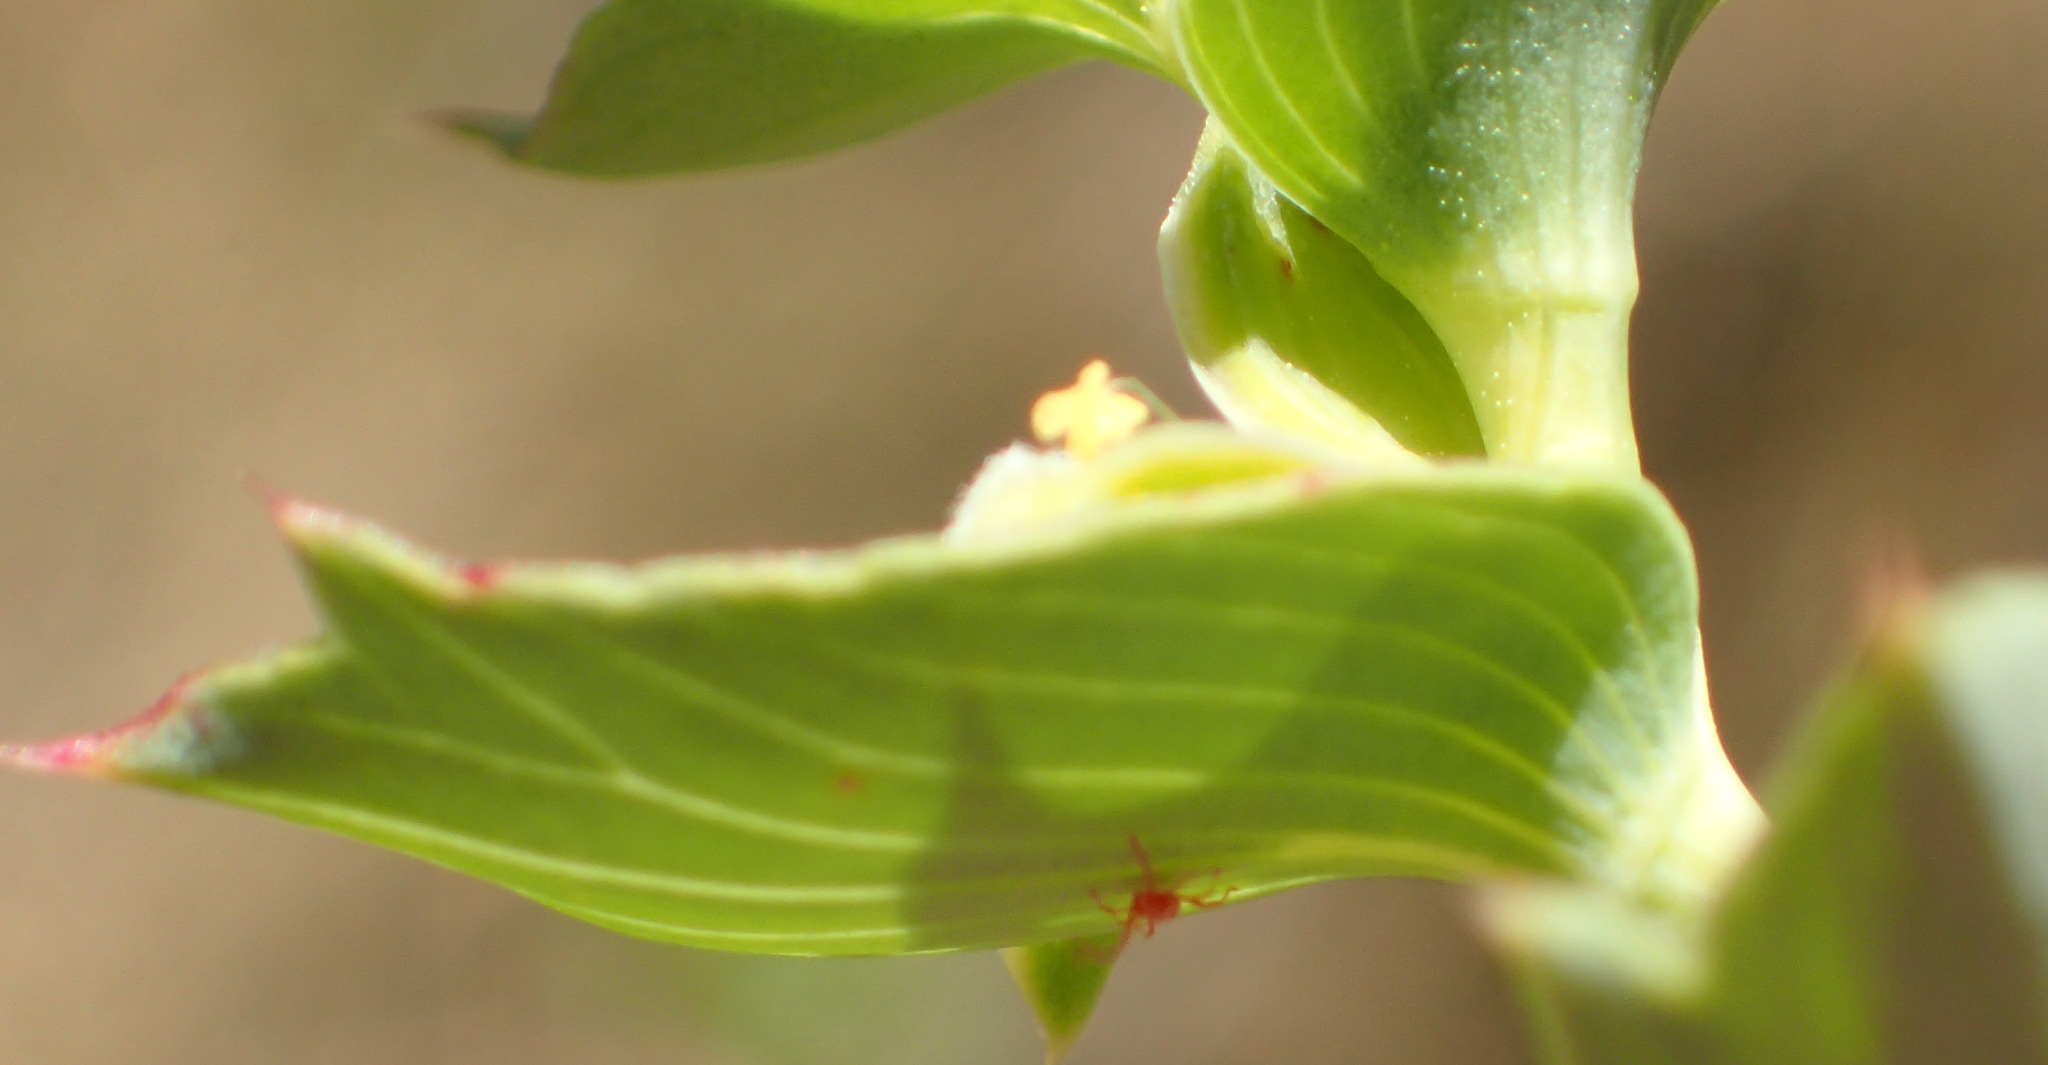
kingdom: Plantae
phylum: Tracheophyta
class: Magnoliopsida
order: Rosales
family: Rosaceae
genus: Cliffortia
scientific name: Cliffortia ilicifolia
